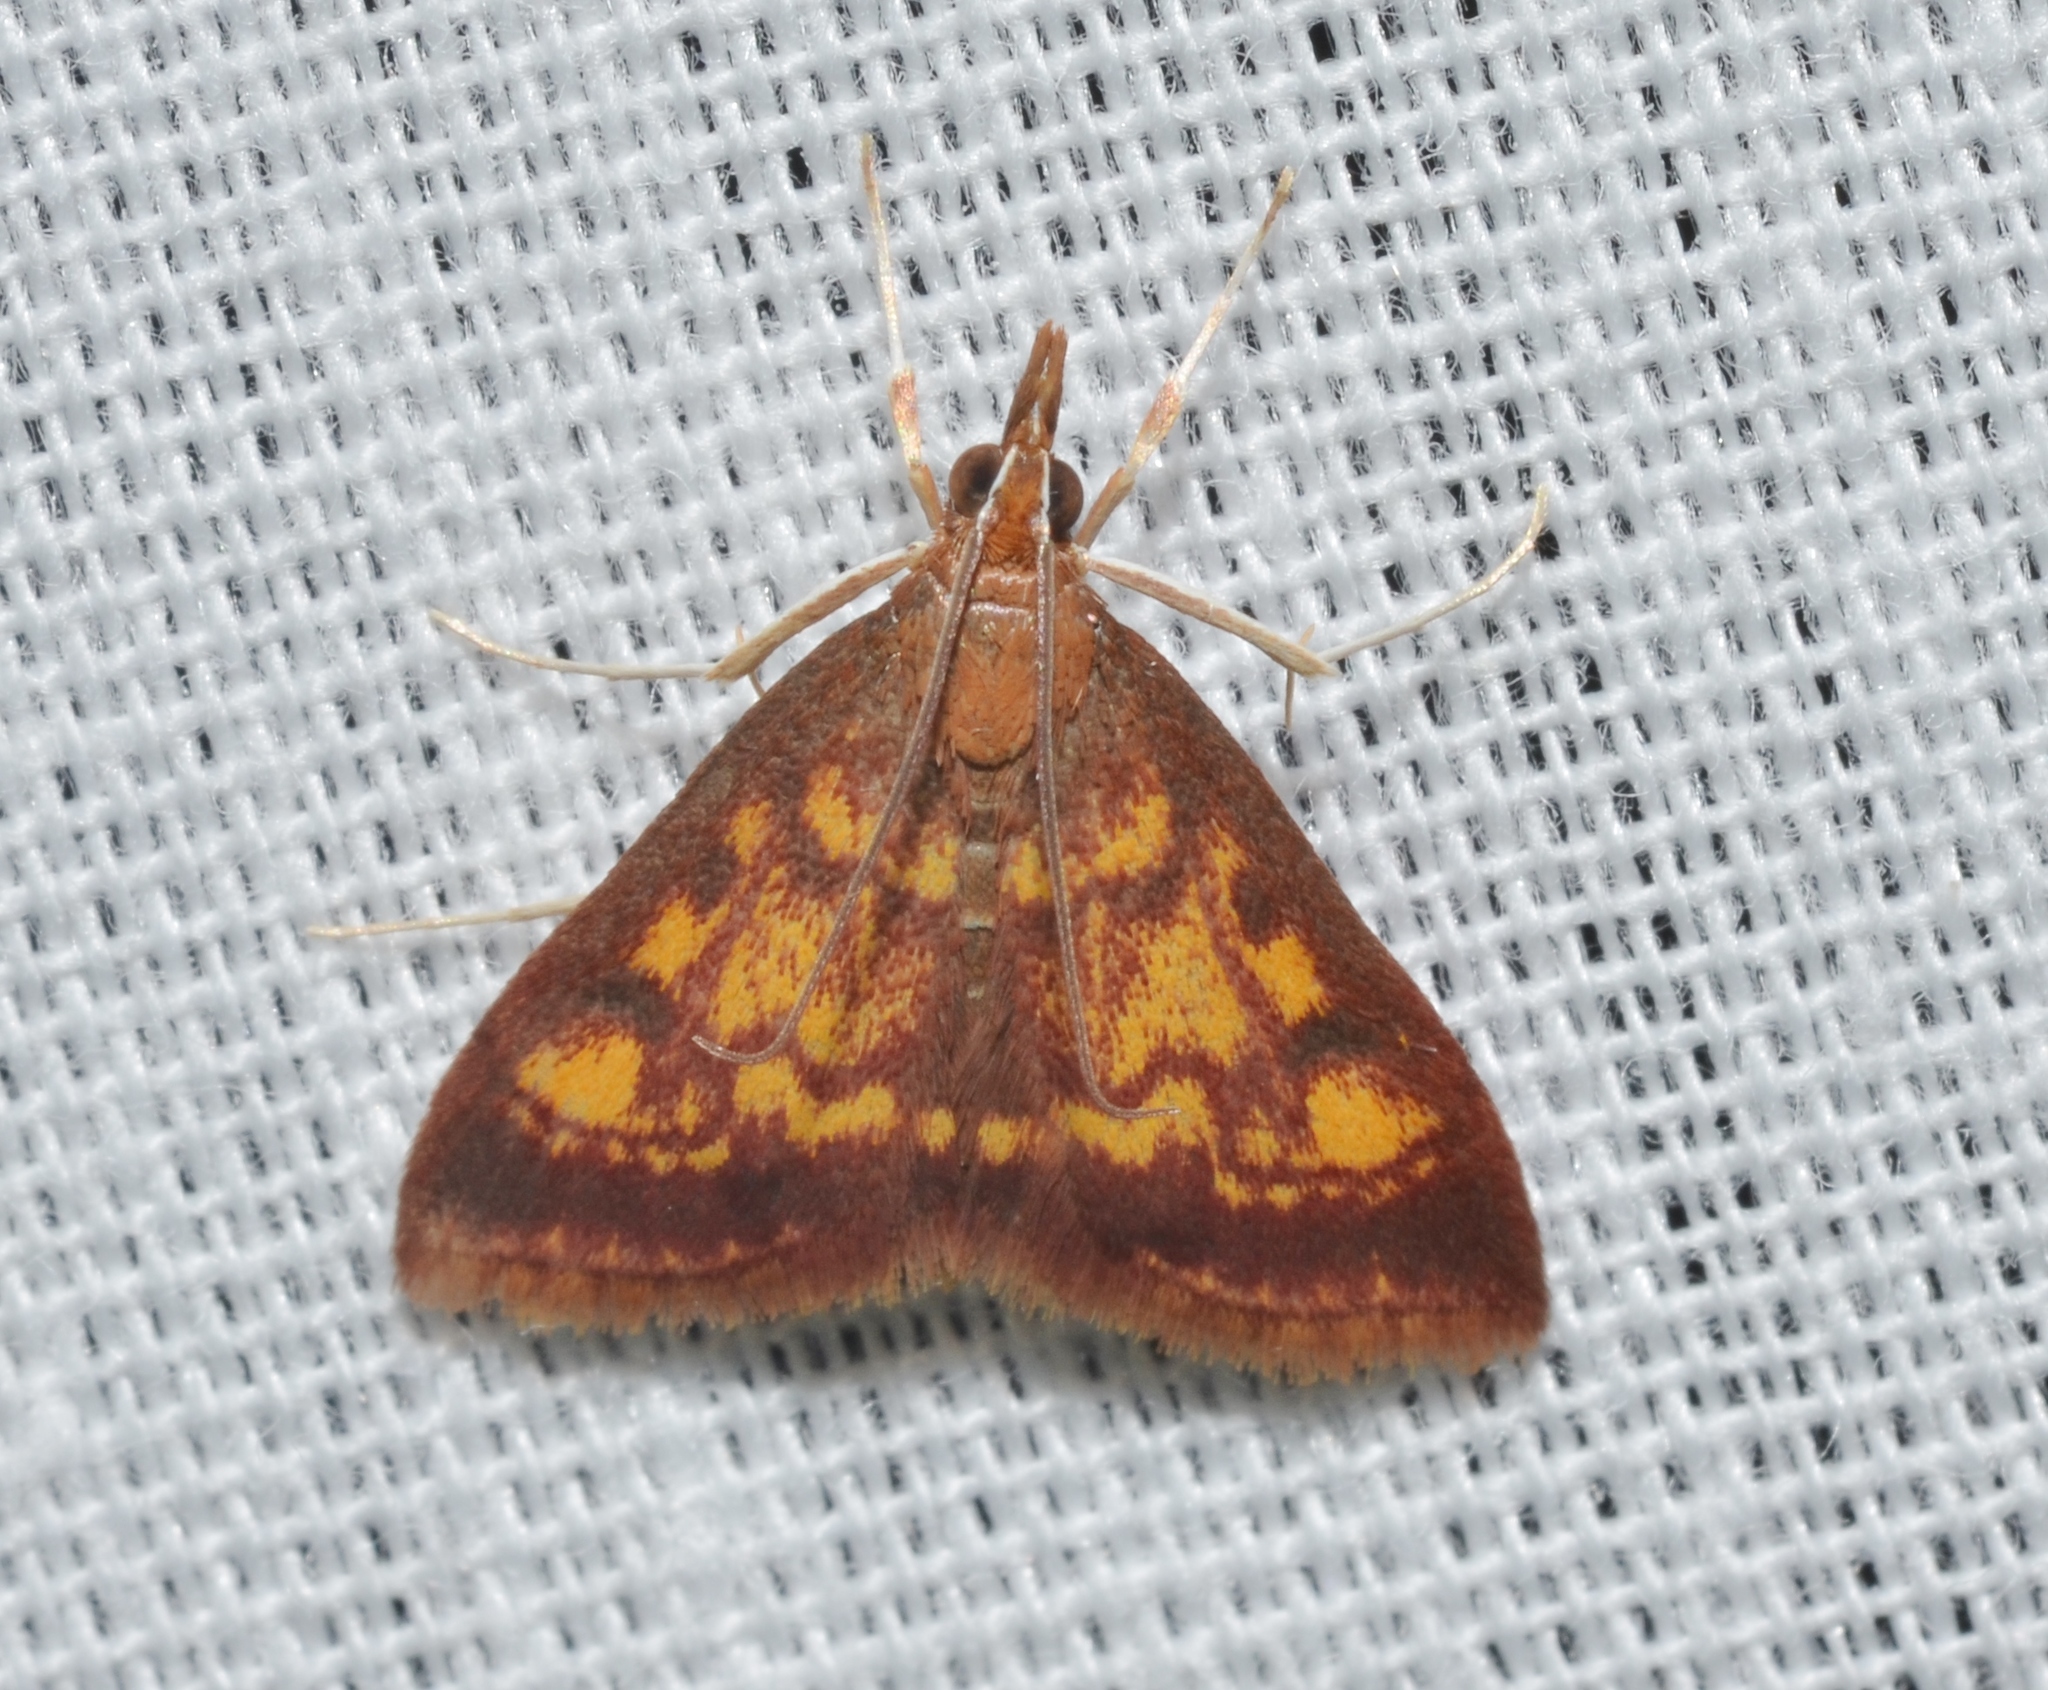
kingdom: Animalia
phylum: Arthropoda
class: Insecta
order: Lepidoptera
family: Crambidae
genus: Pyrausta
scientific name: Pyrausta acrionalis
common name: Mint-loving pyrausta moth
